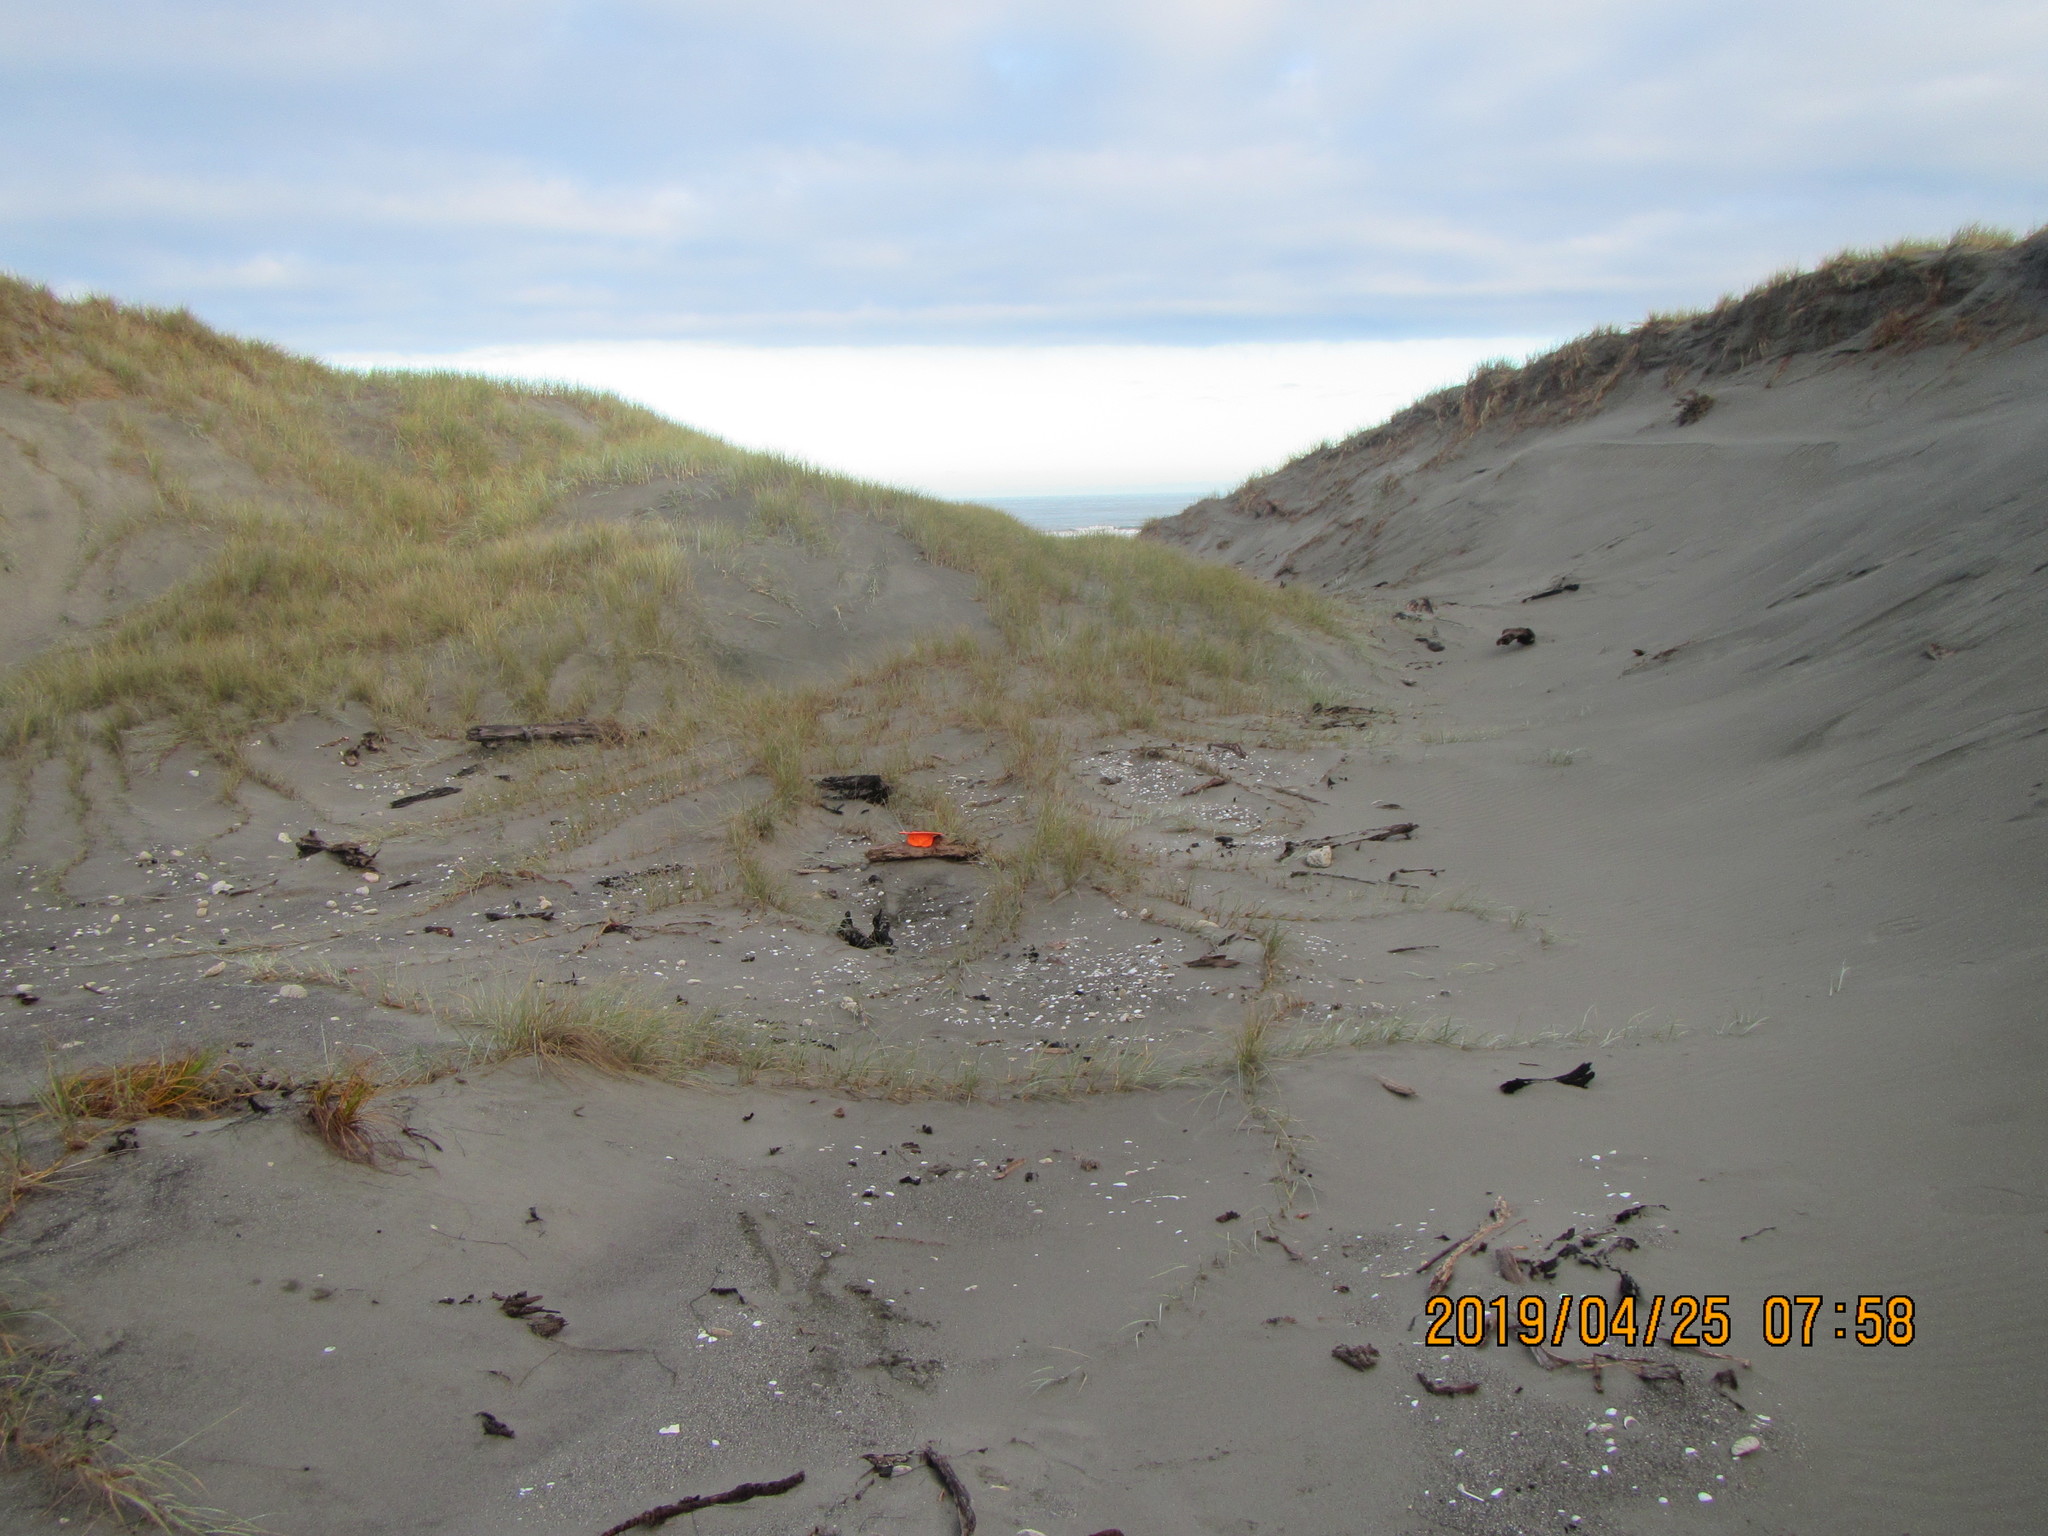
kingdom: Animalia
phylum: Arthropoda
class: Arachnida
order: Araneae
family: Theridiidae
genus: Steatoda
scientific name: Steatoda capensis
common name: Cobweb weaver
